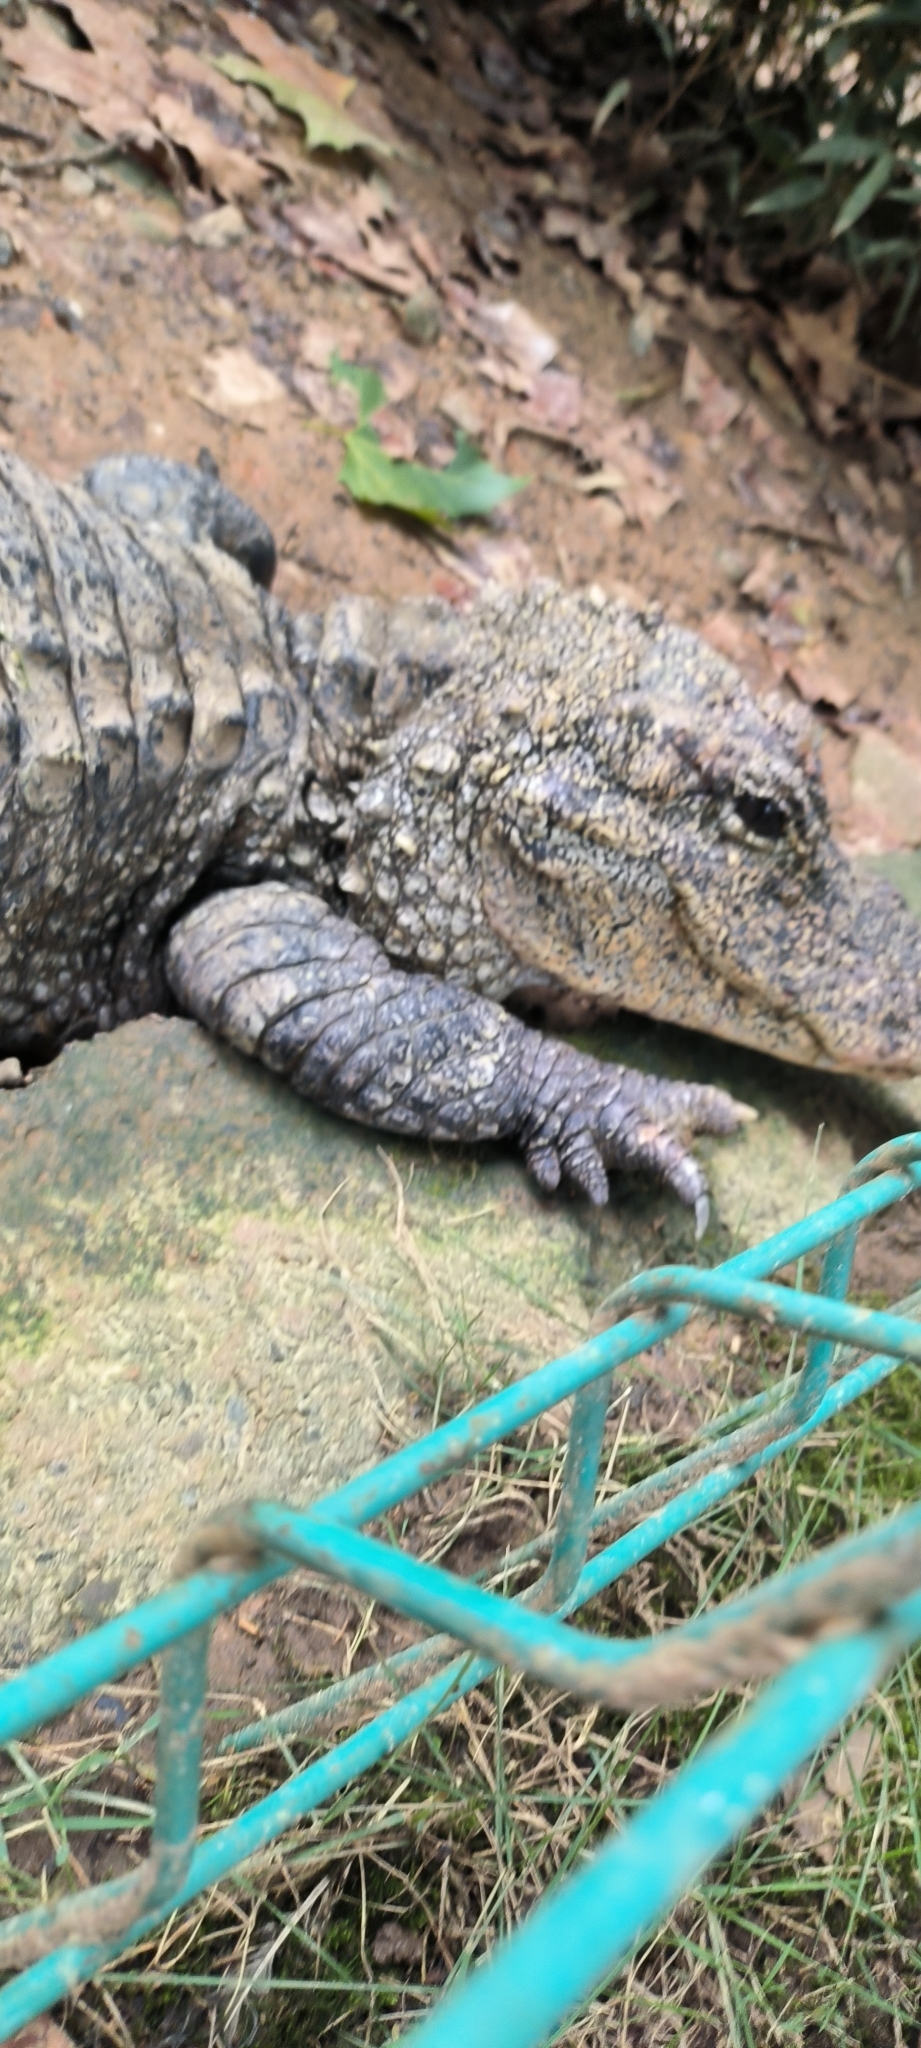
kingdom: Animalia
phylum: Chordata
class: Crocodylia
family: Alligatoridae
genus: Alligator
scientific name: Alligator sinensis
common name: Chinese alligator
